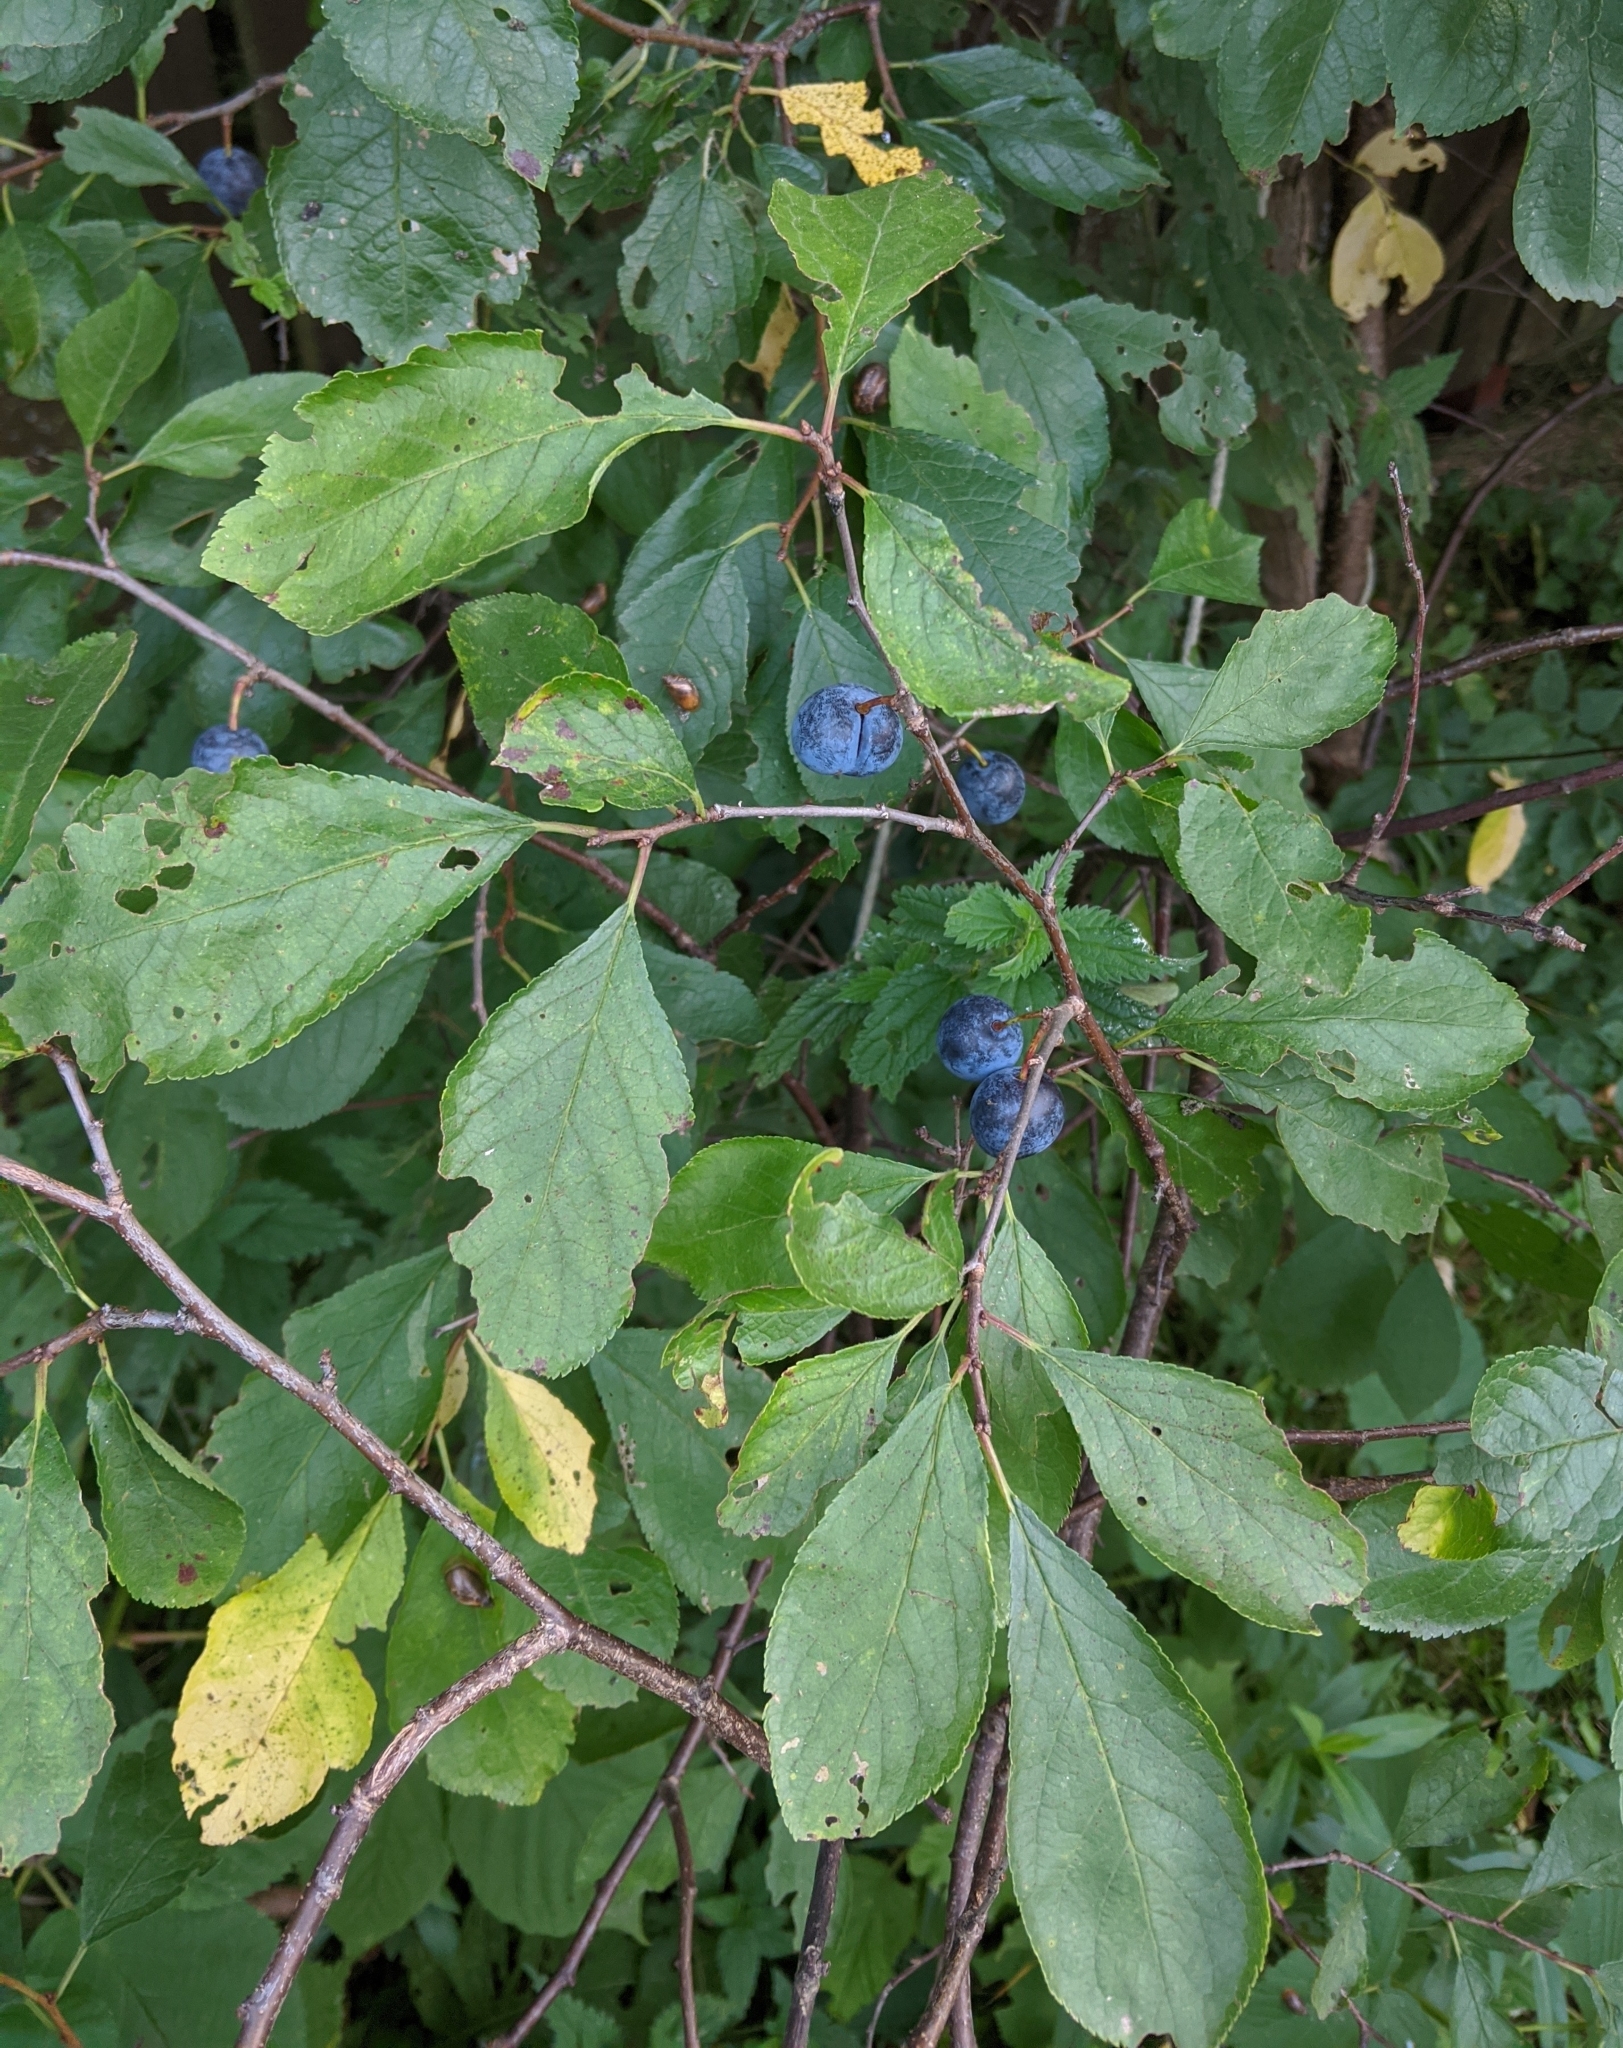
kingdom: Plantae
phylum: Tracheophyta
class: Magnoliopsida
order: Rosales
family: Rosaceae
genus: Prunus
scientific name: Prunus spinosa
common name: Blackthorn
